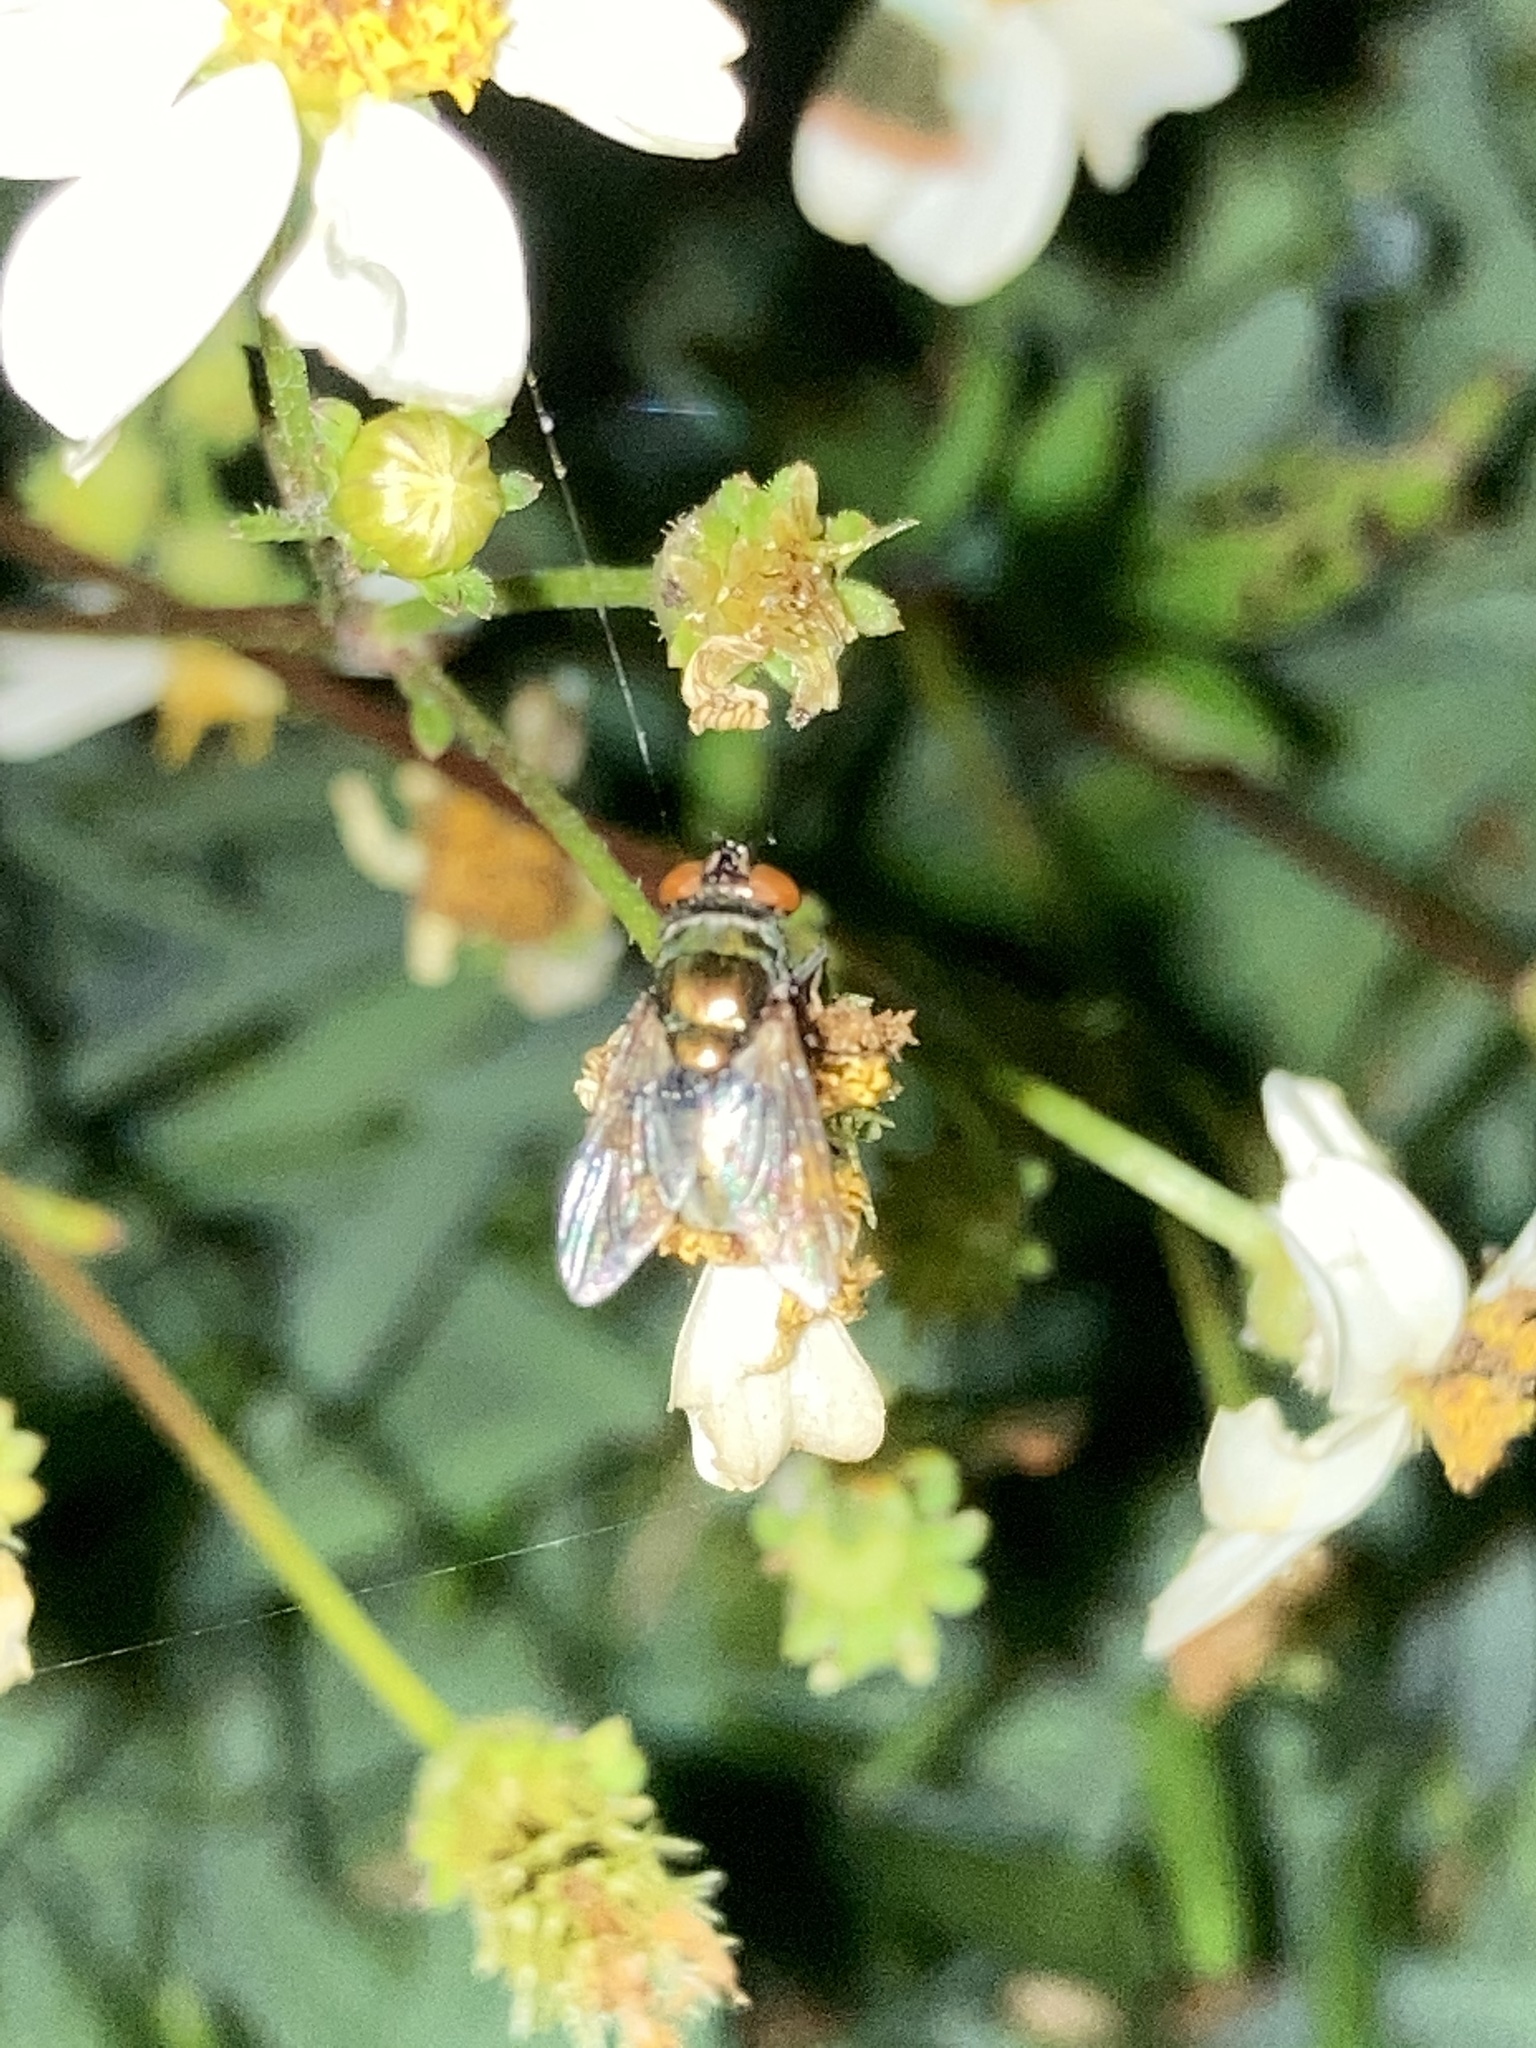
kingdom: Plantae
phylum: Tracheophyta
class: Magnoliopsida
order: Asterales
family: Asteraceae
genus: Bidens
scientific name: Bidens alba
